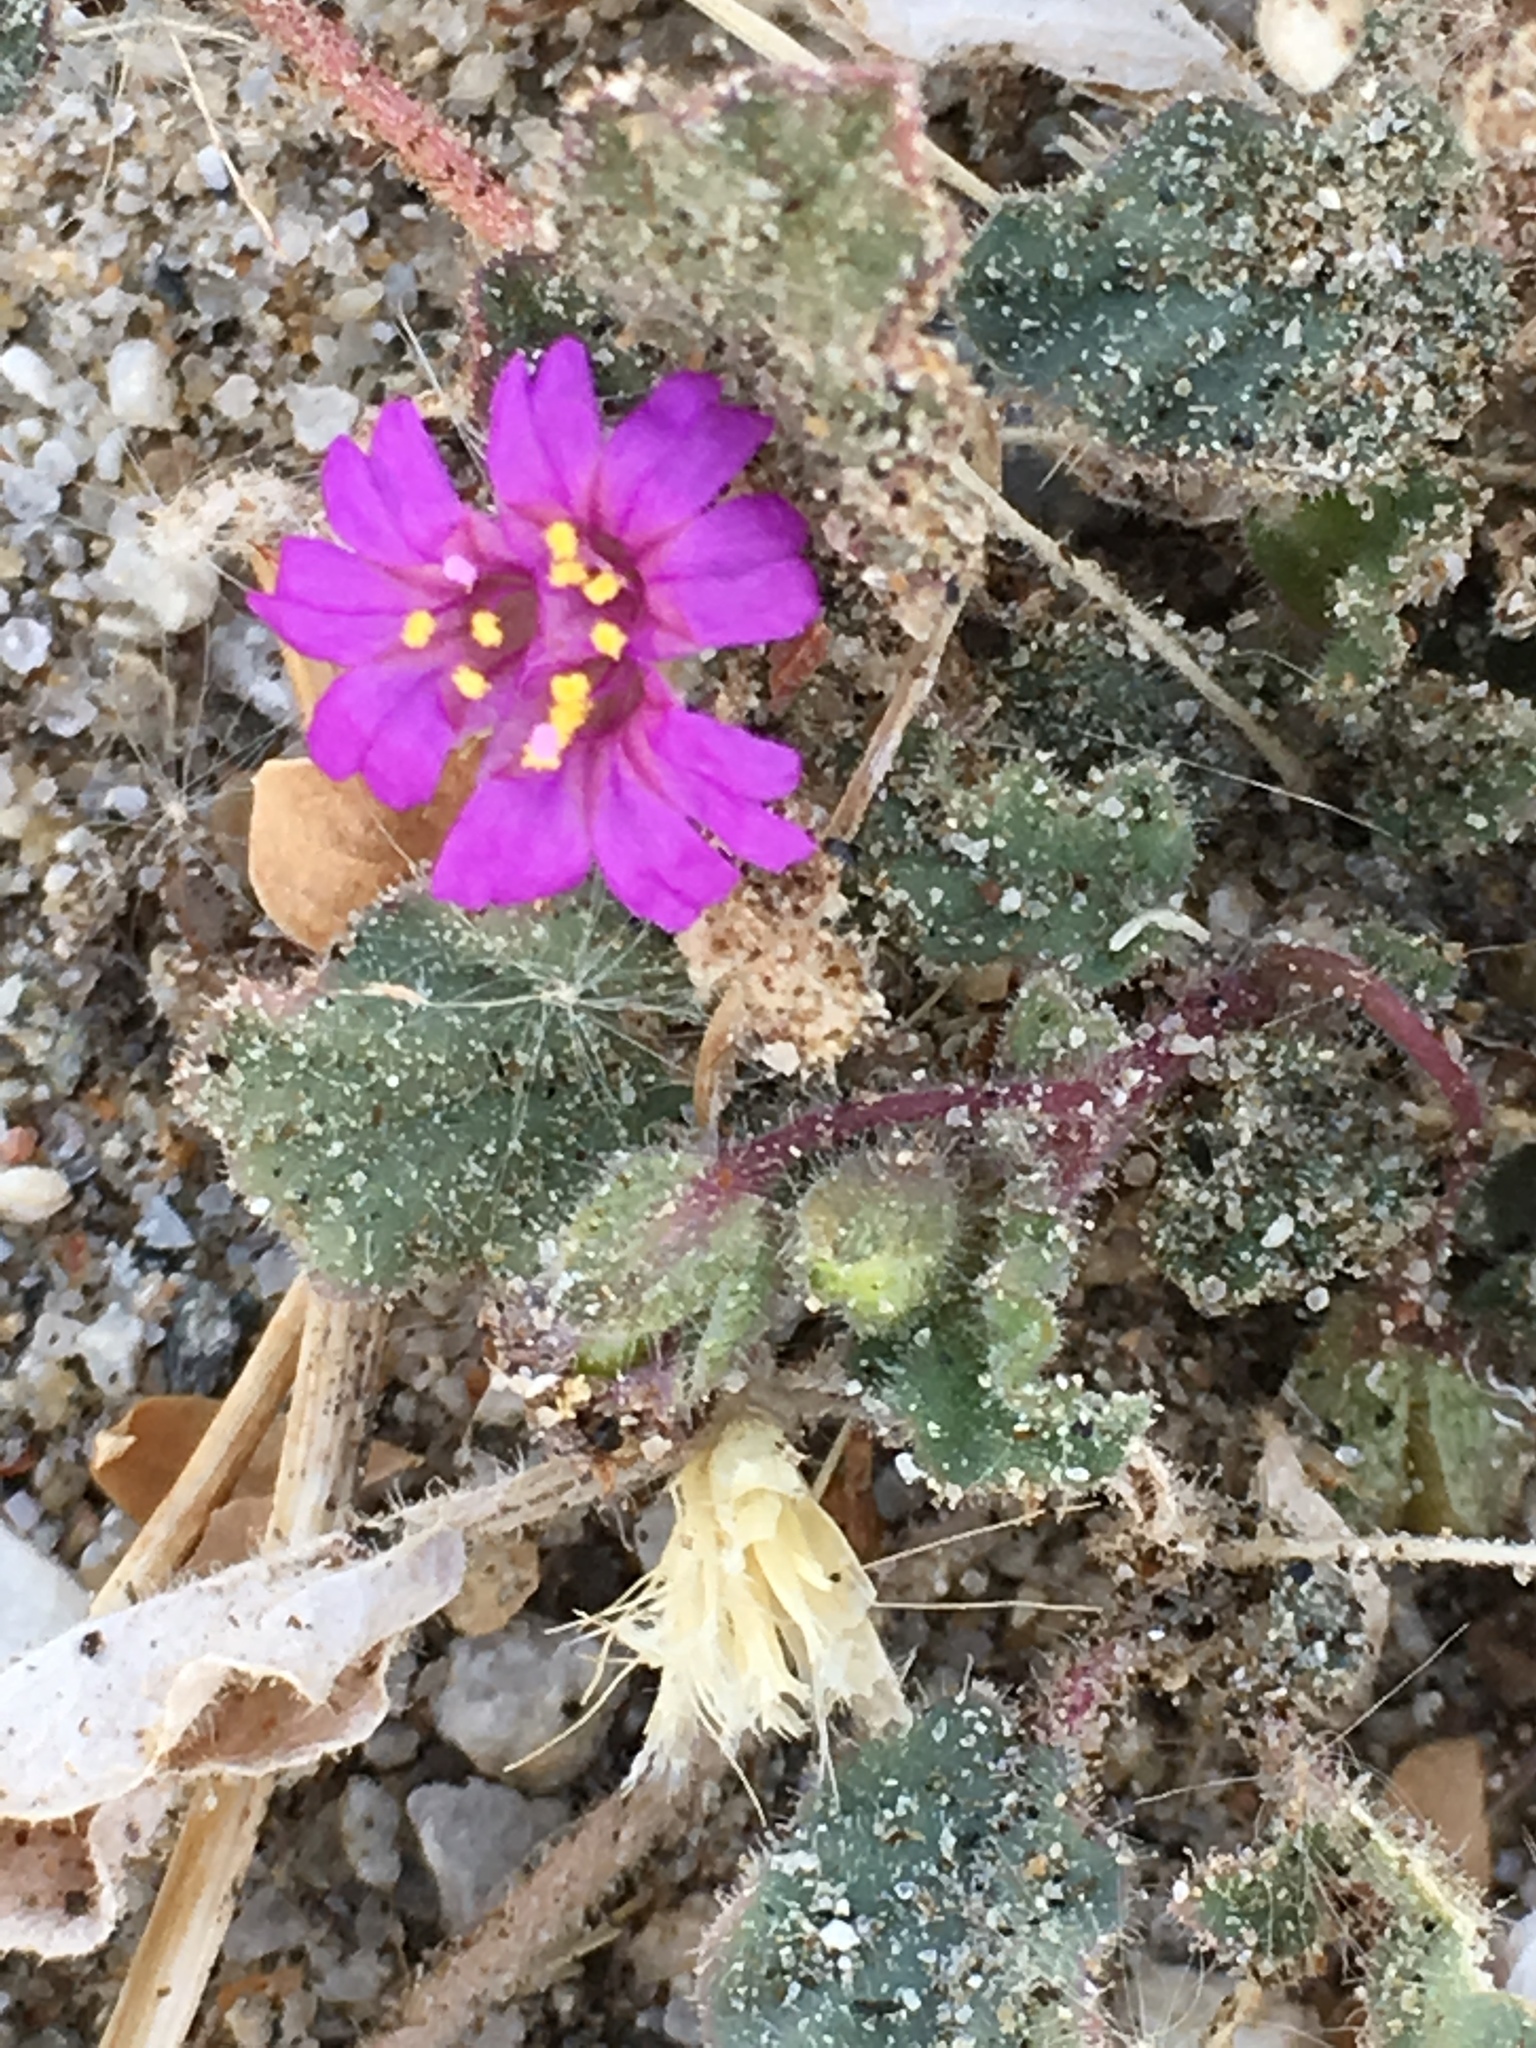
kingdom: Plantae
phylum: Tracheophyta
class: Magnoliopsida
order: Caryophyllales
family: Nyctaginaceae
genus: Allionia
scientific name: Allionia incarnata
